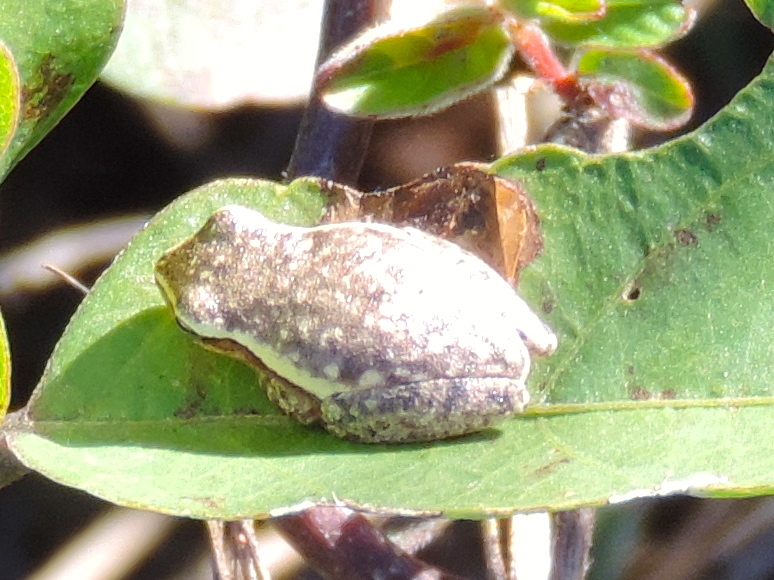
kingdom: Animalia
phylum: Chordata
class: Amphibia
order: Anura
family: Hylidae
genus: Tlalocohyla
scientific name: Tlalocohyla smithii
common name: Dwarf mexican treefrog
